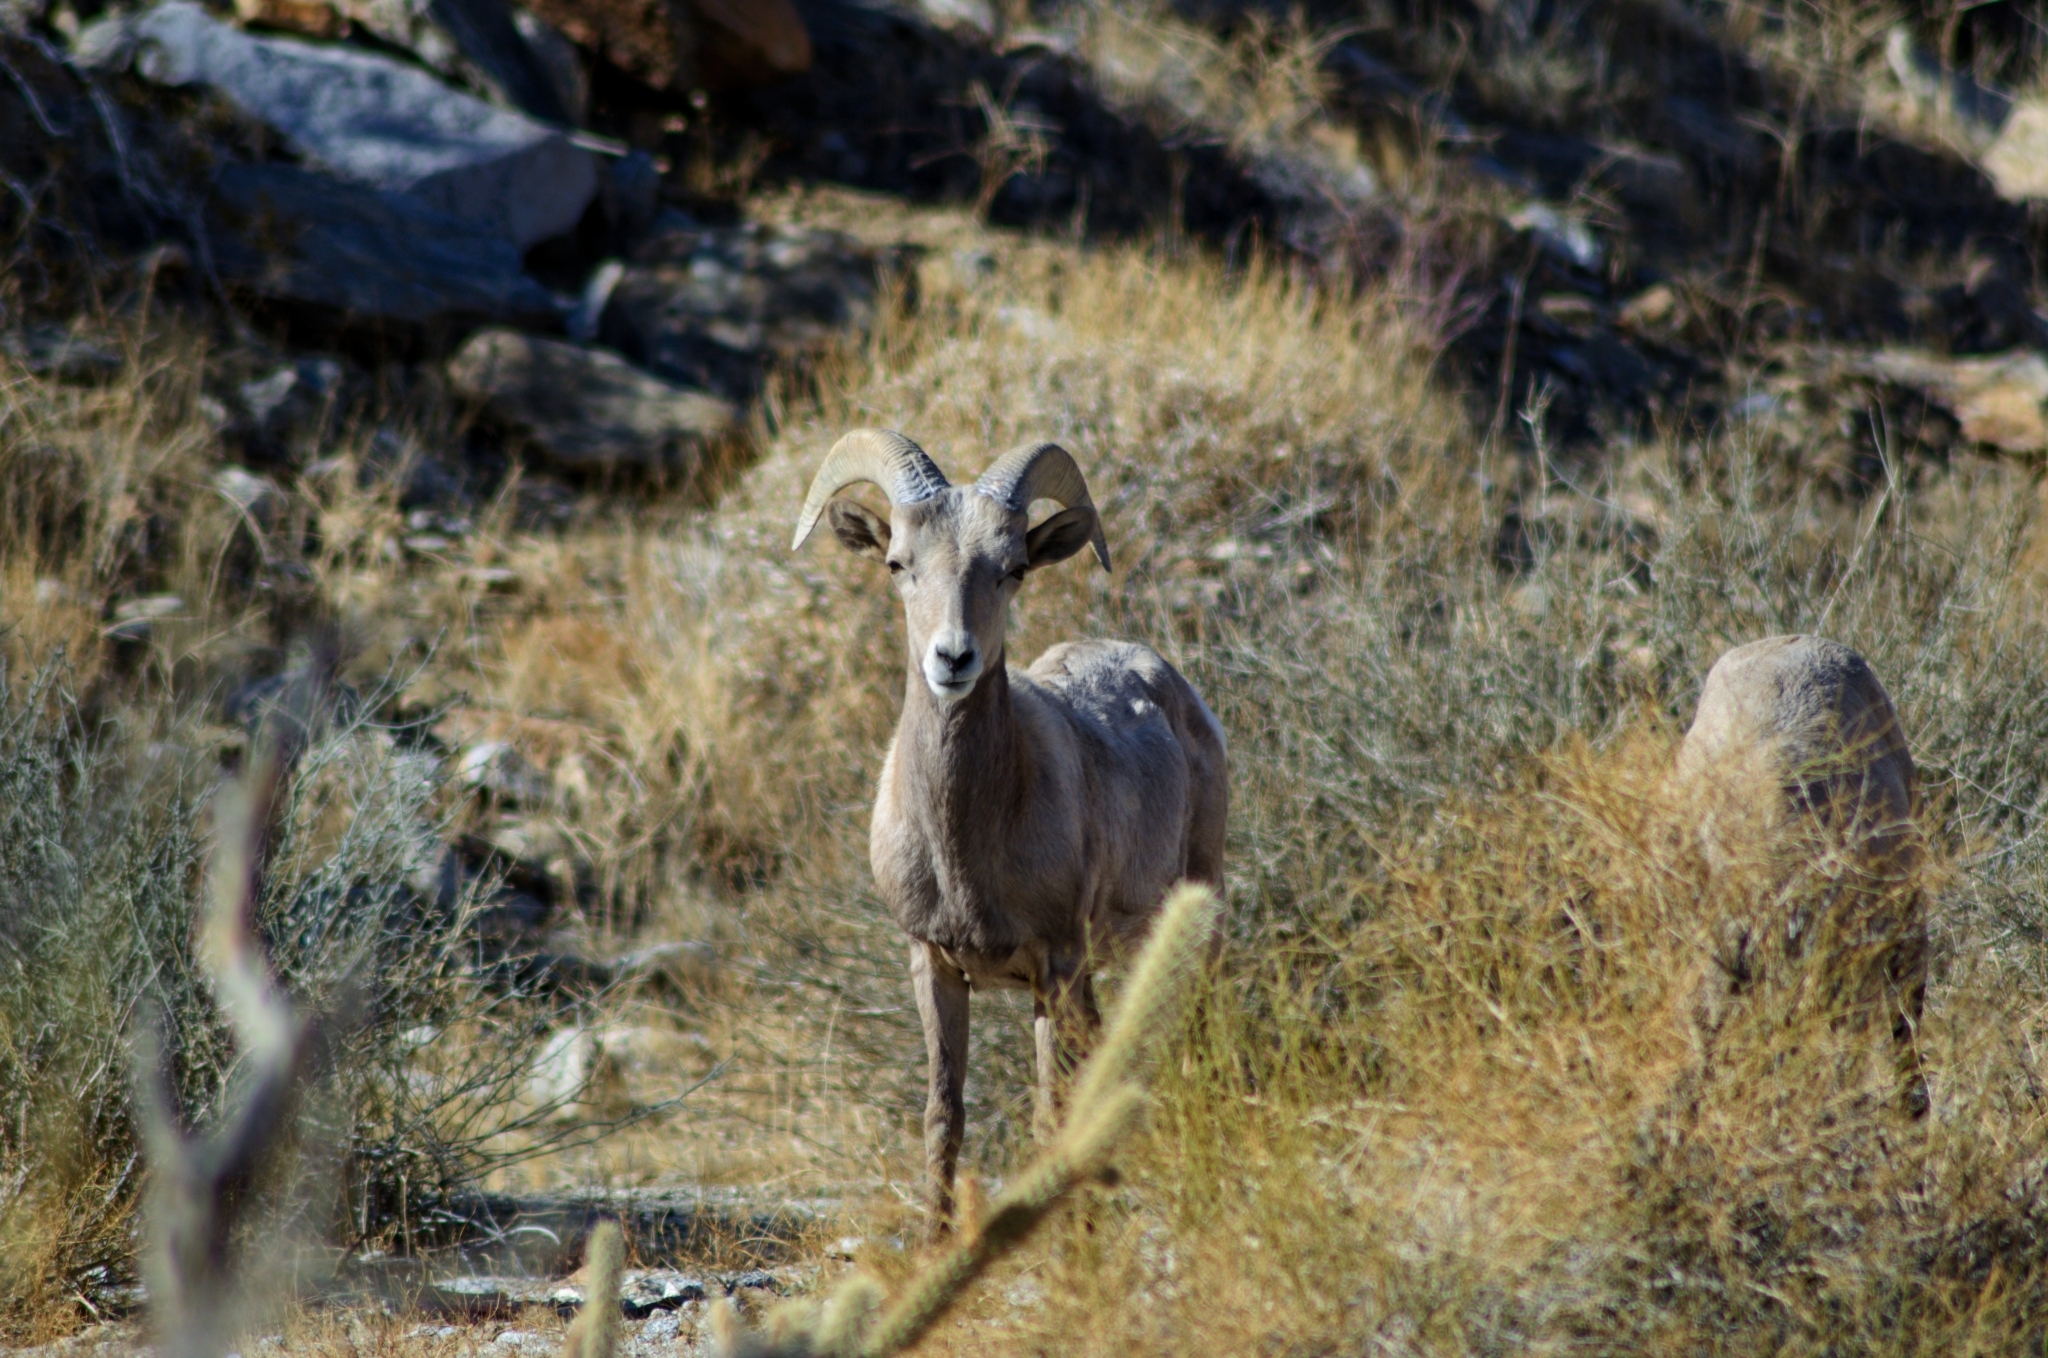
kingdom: Animalia
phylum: Chordata
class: Mammalia
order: Artiodactyla
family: Bovidae
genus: Ovis
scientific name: Ovis canadensis
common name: Bighorn sheep
